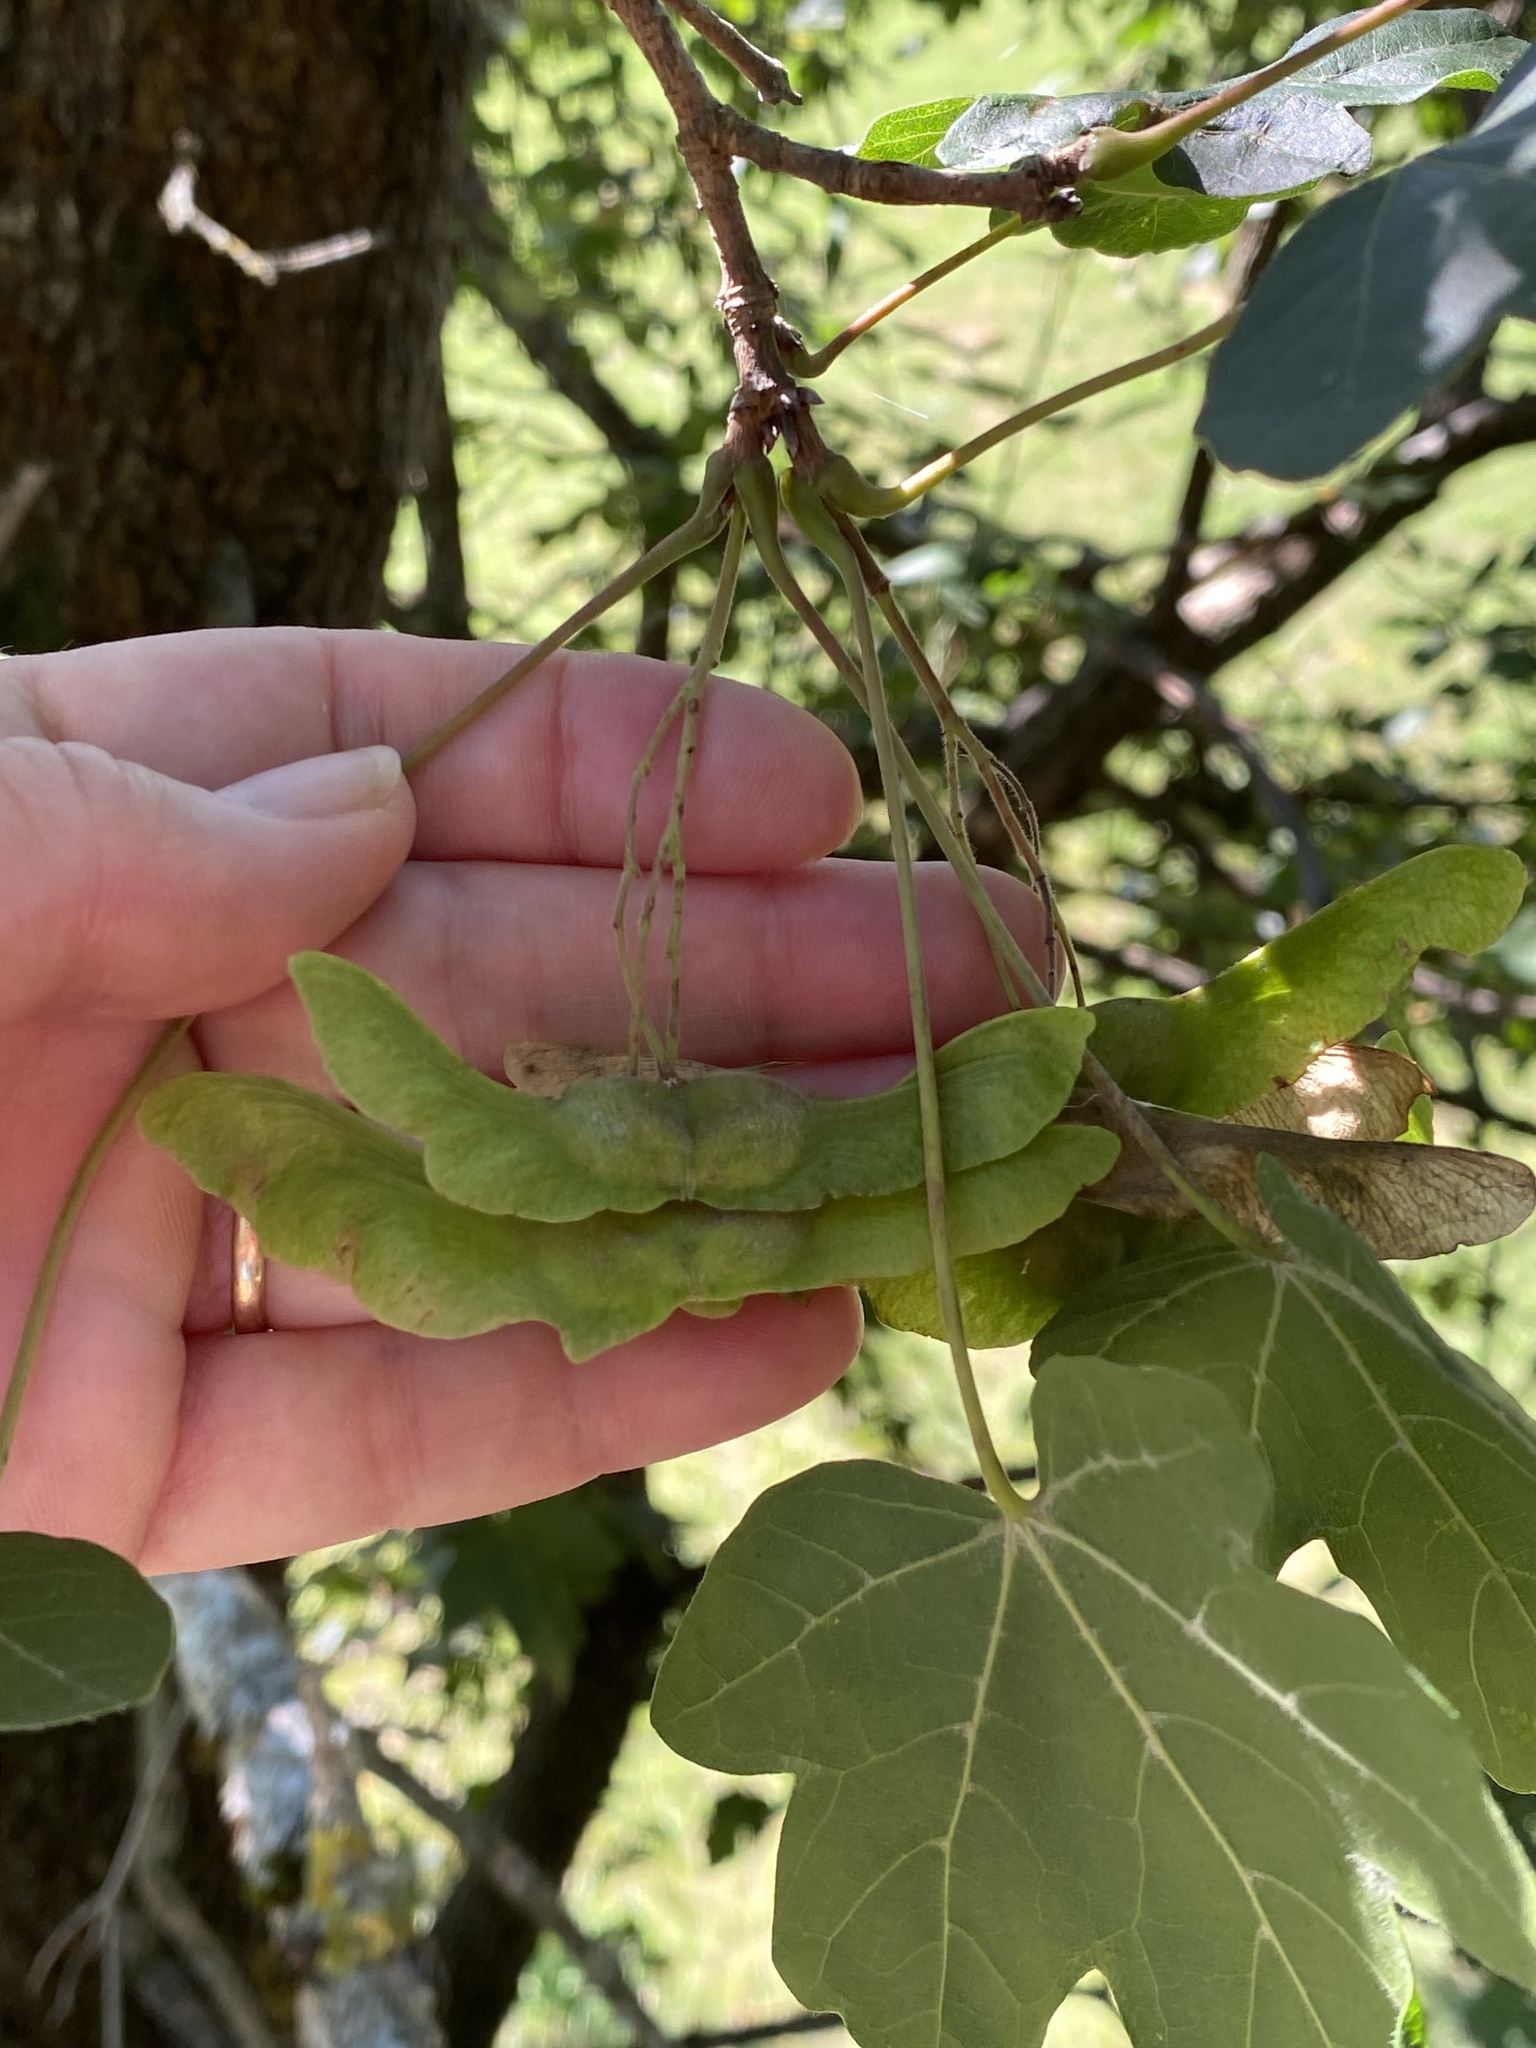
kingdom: Plantae
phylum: Tracheophyta
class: Magnoliopsida
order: Sapindales
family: Sapindaceae
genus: Acer
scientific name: Acer campestre
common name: Field maple
